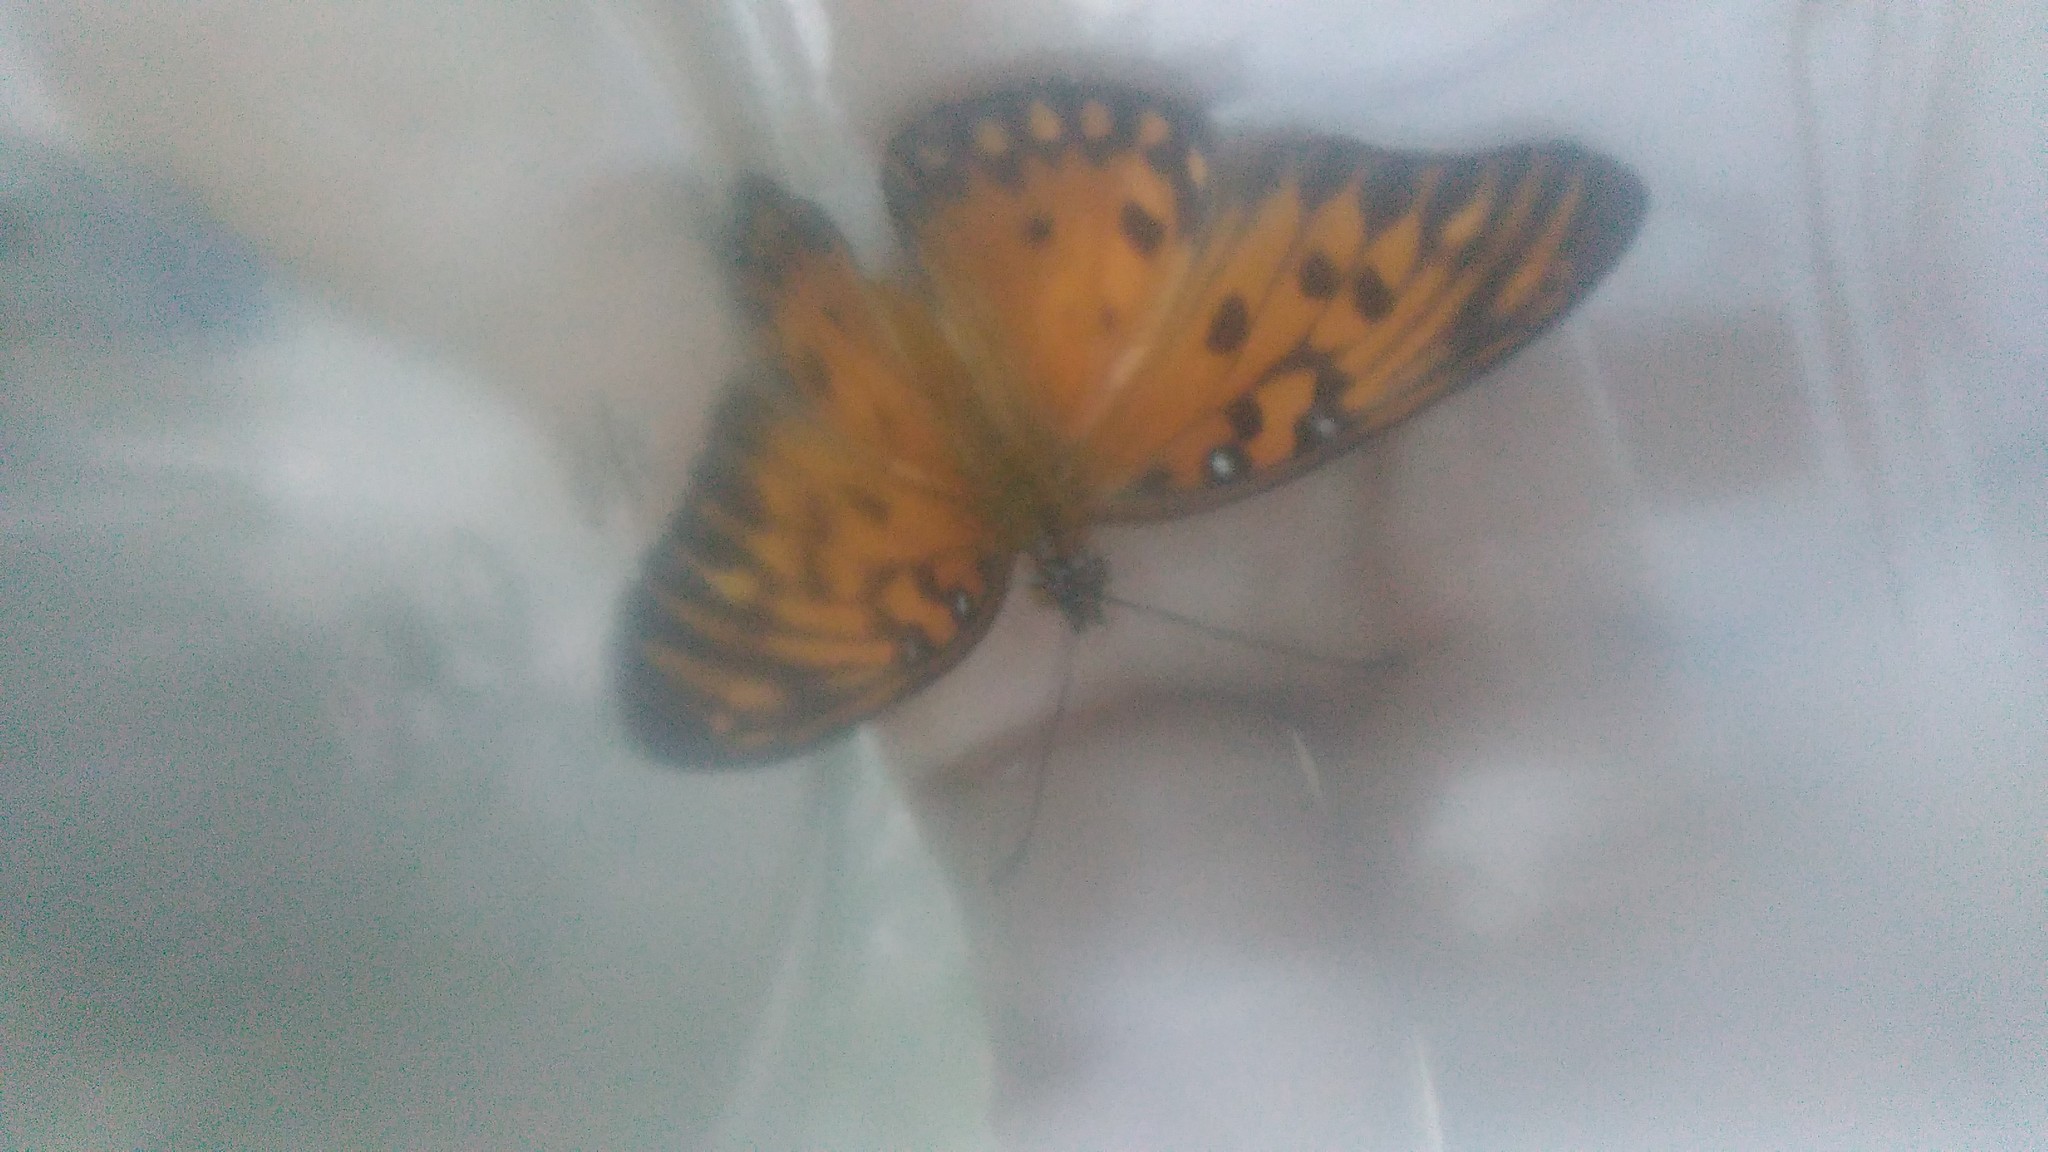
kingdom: Animalia
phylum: Arthropoda
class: Insecta
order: Lepidoptera
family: Nymphalidae
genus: Dione
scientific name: Dione vanillae
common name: Gulf fritillary
